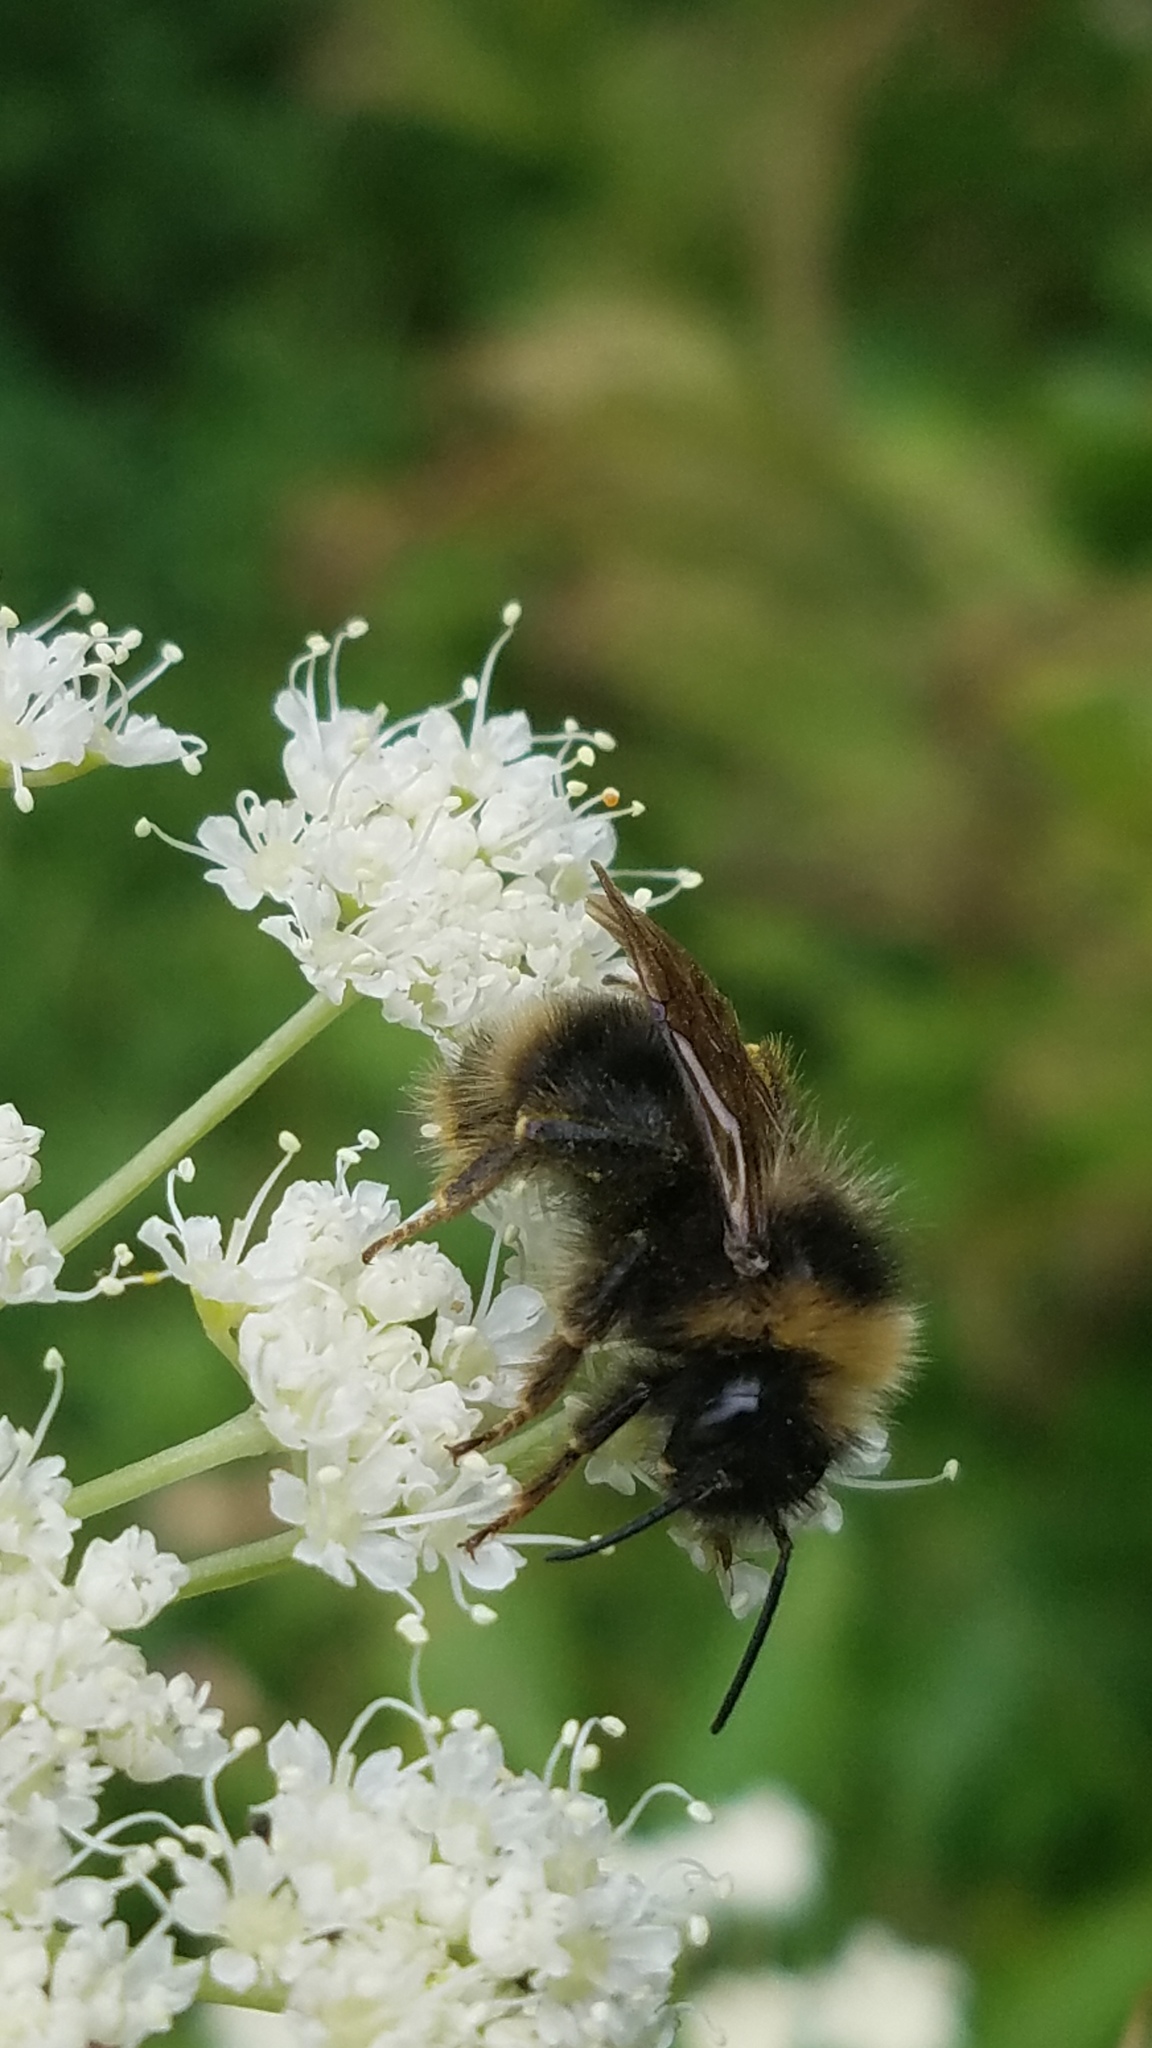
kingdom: Animalia
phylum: Arthropoda
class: Insecta
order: Hymenoptera
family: Apidae
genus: Bombus
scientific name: Bombus flavidus
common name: Fernald cuckoo bumble bee
